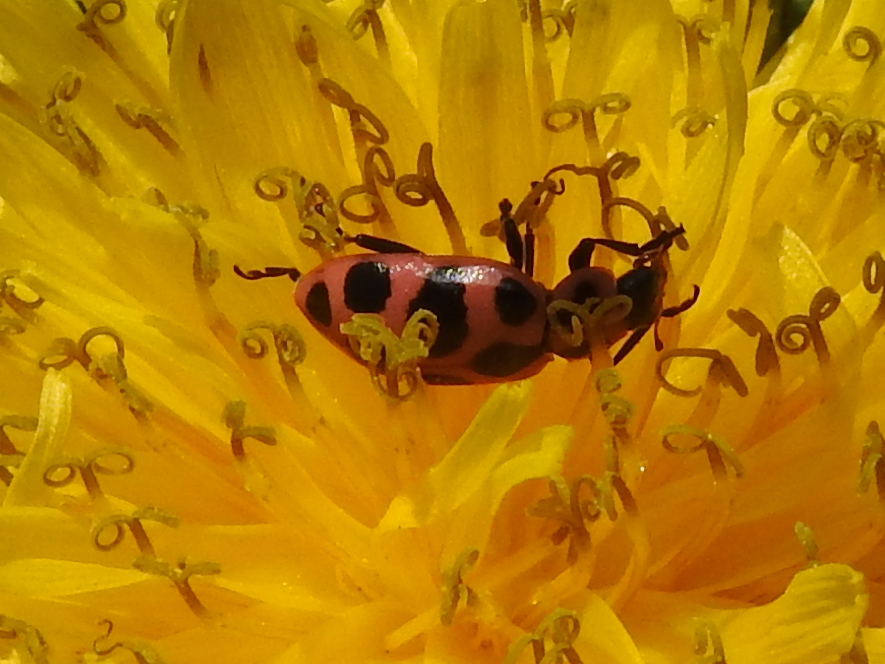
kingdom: Animalia
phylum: Arthropoda
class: Insecta
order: Coleoptera
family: Coccinellidae
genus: Coleomegilla
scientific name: Coleomegilla maculata
